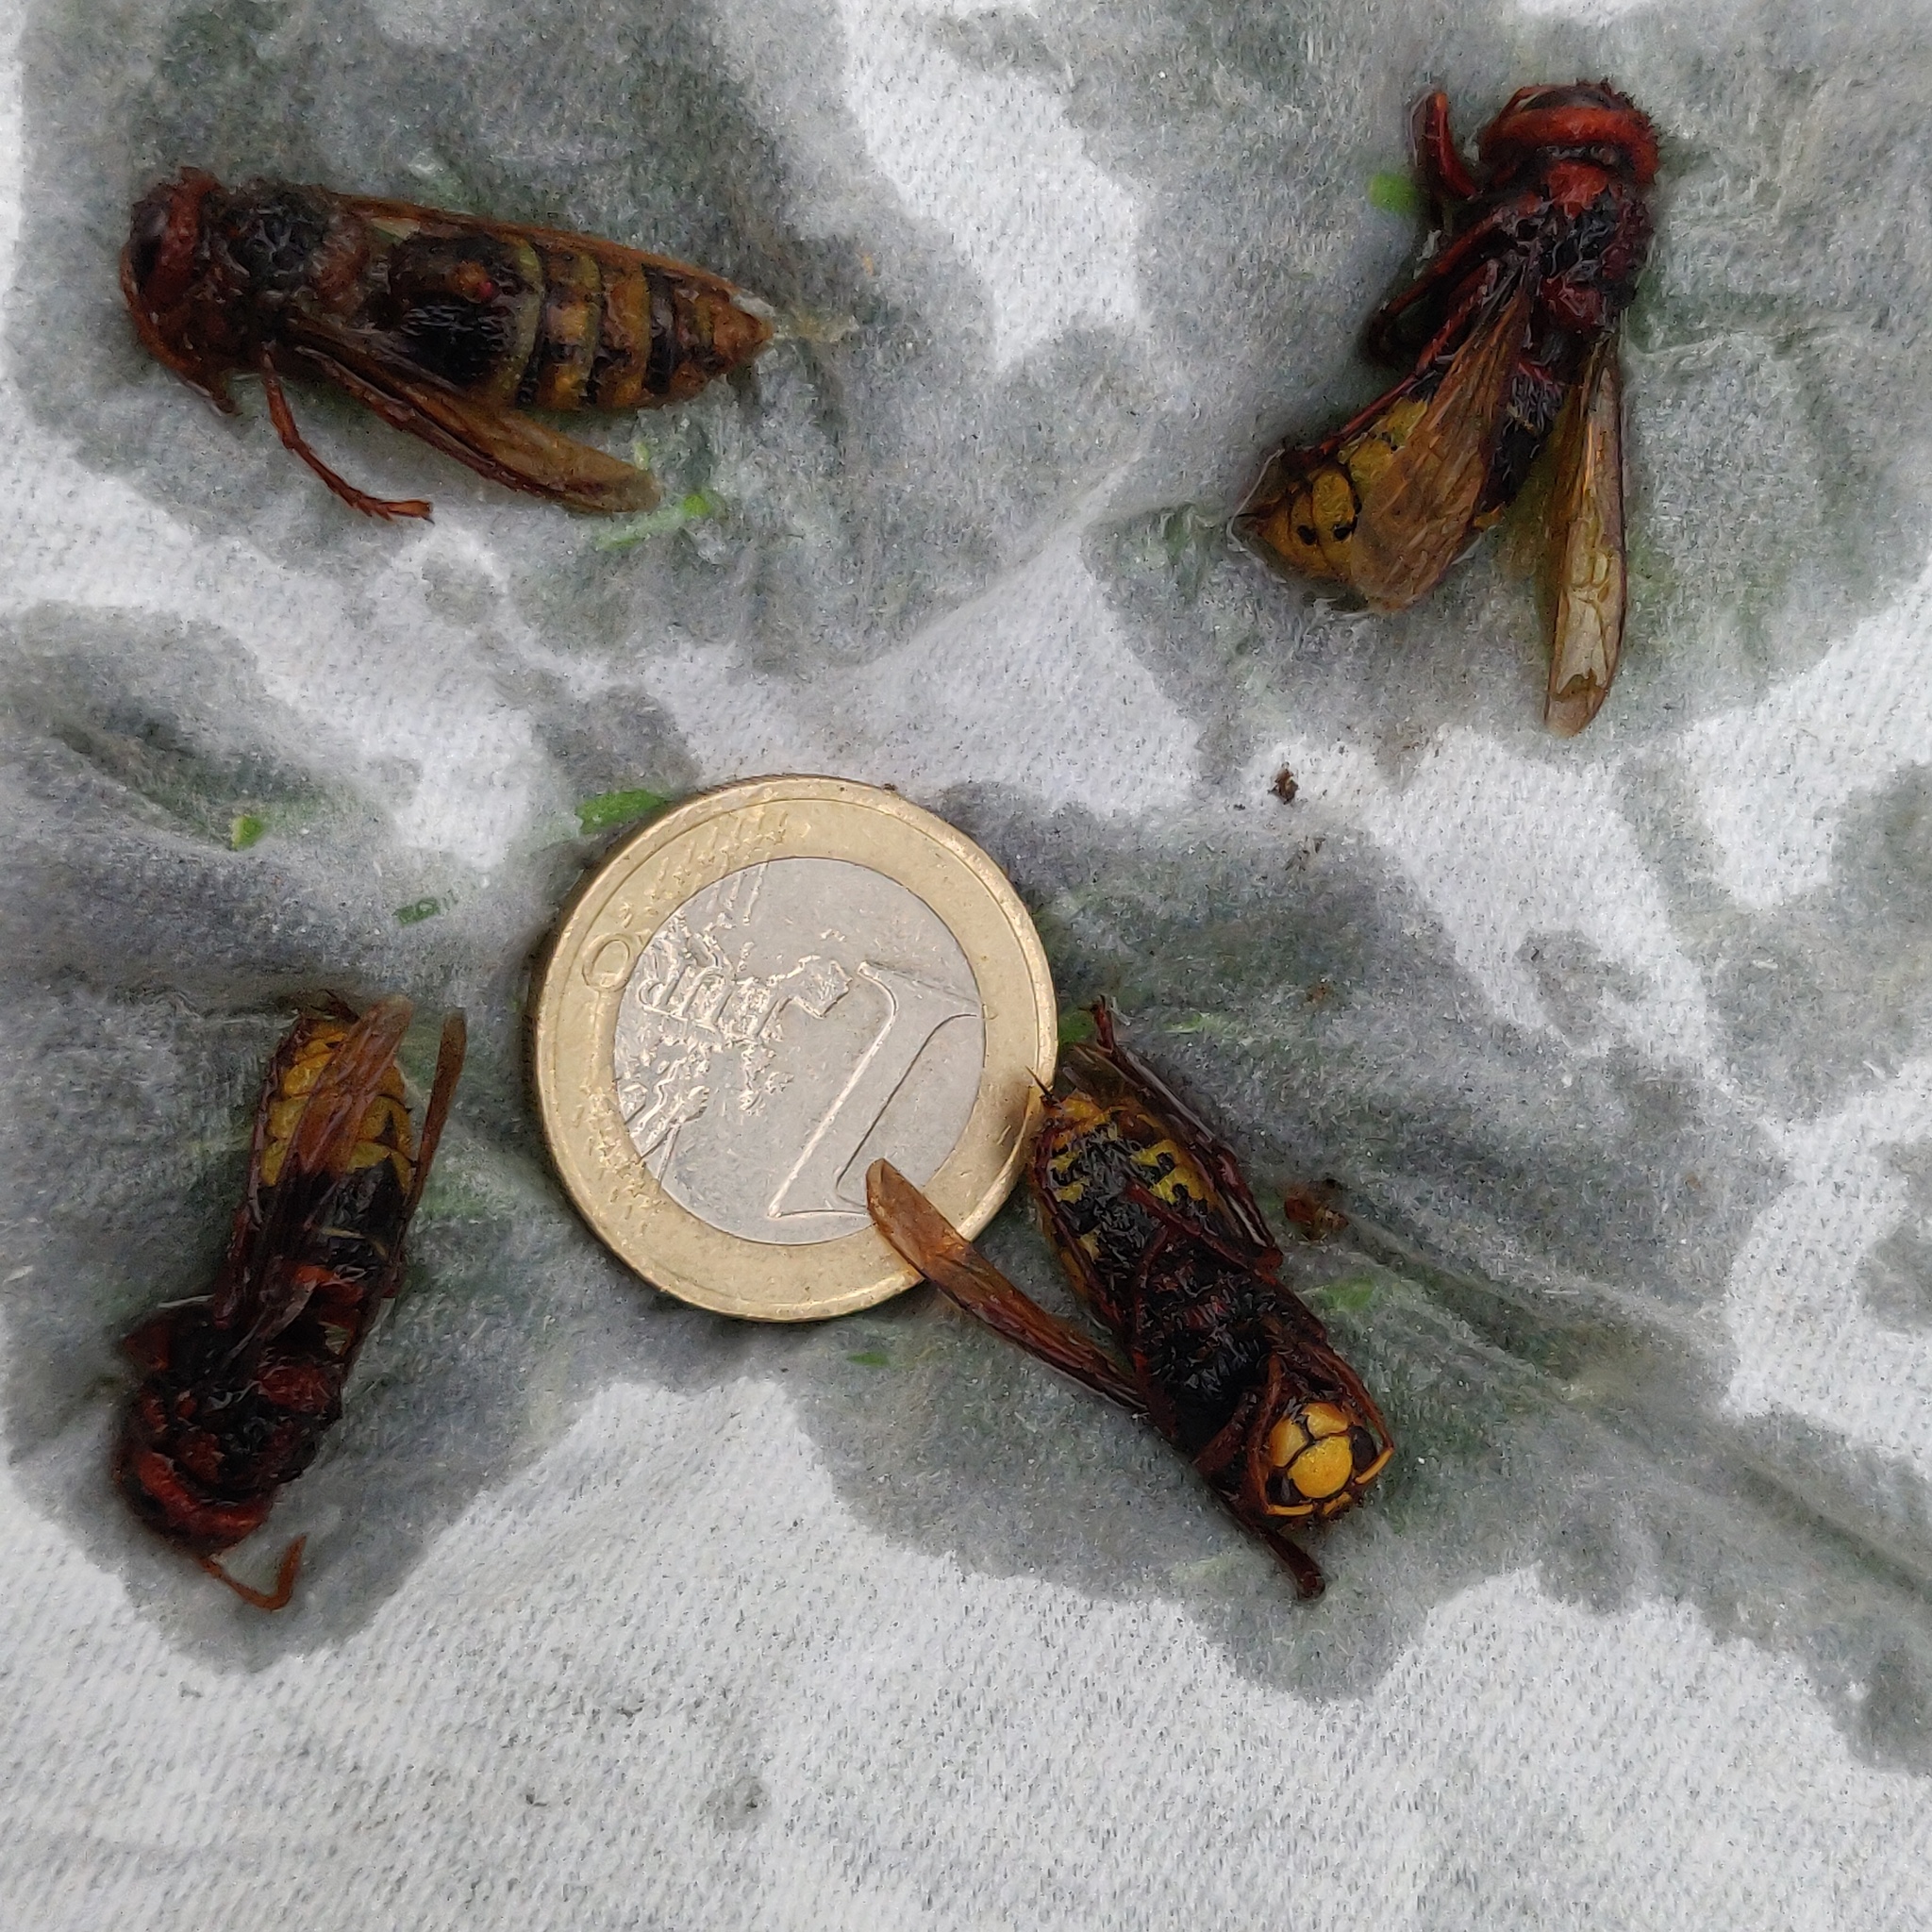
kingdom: Animalia
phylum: Arthropoda
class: Insecta
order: Hymenoptera
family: Vespidae
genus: Vespa
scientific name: Vespa crabro
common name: Hornet
